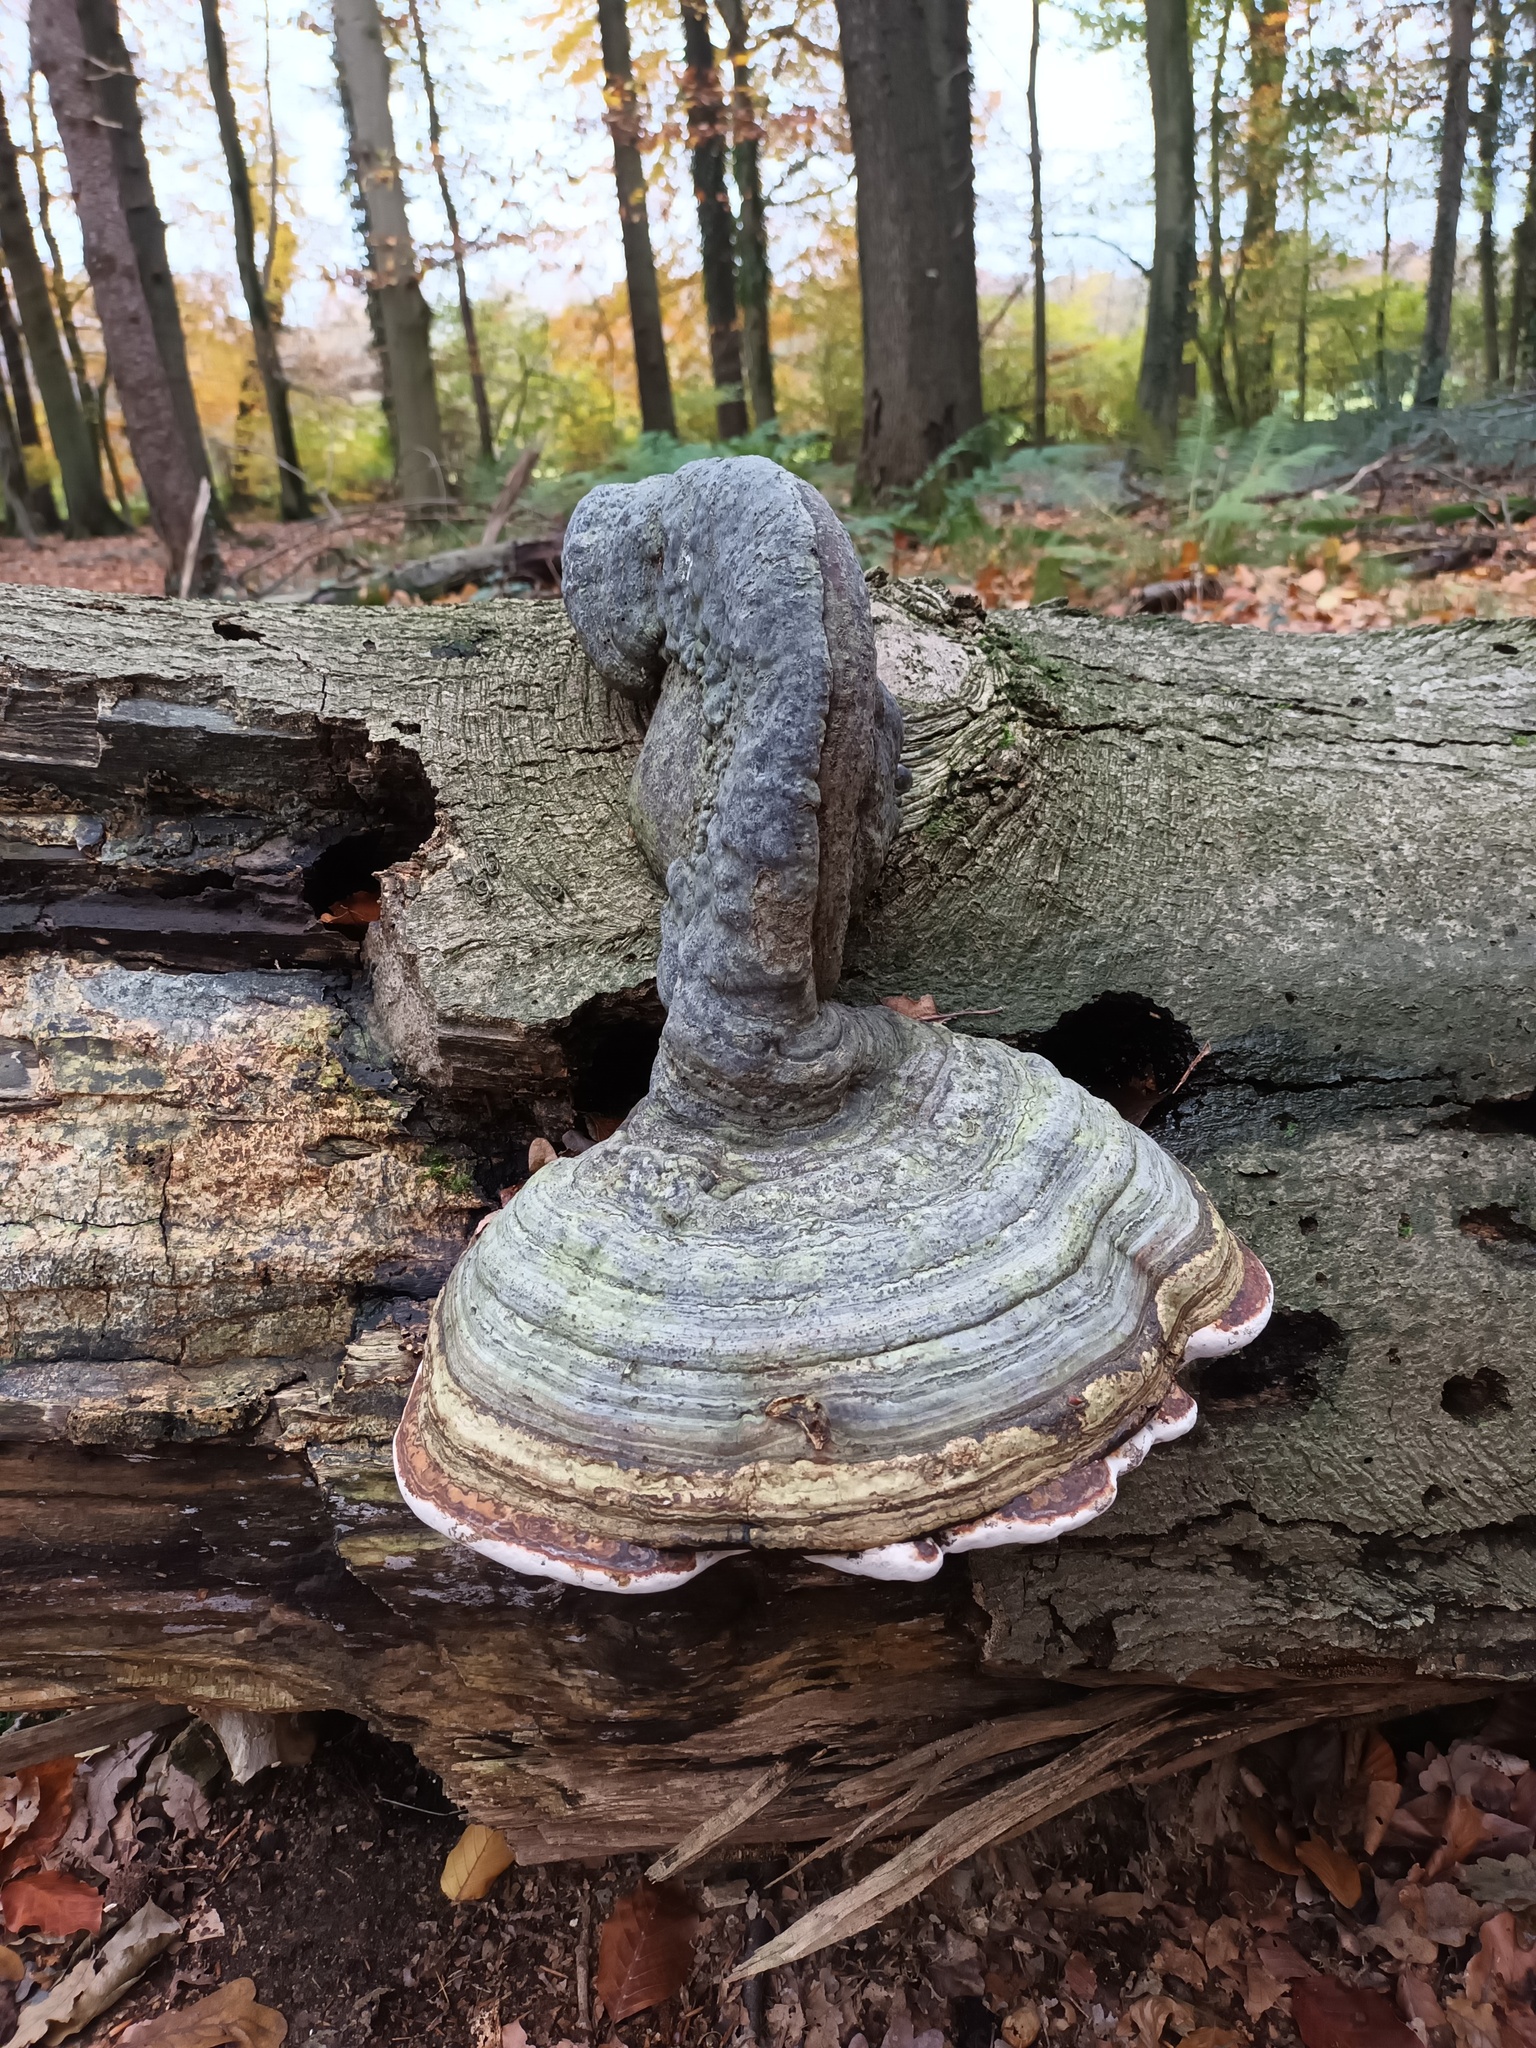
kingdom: Fungi
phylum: Basidiomycota
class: Agaricomycetes
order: Polyporales
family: Polyporaceae
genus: Fomes
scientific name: Fomes fomentarius
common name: Hoof fungus
